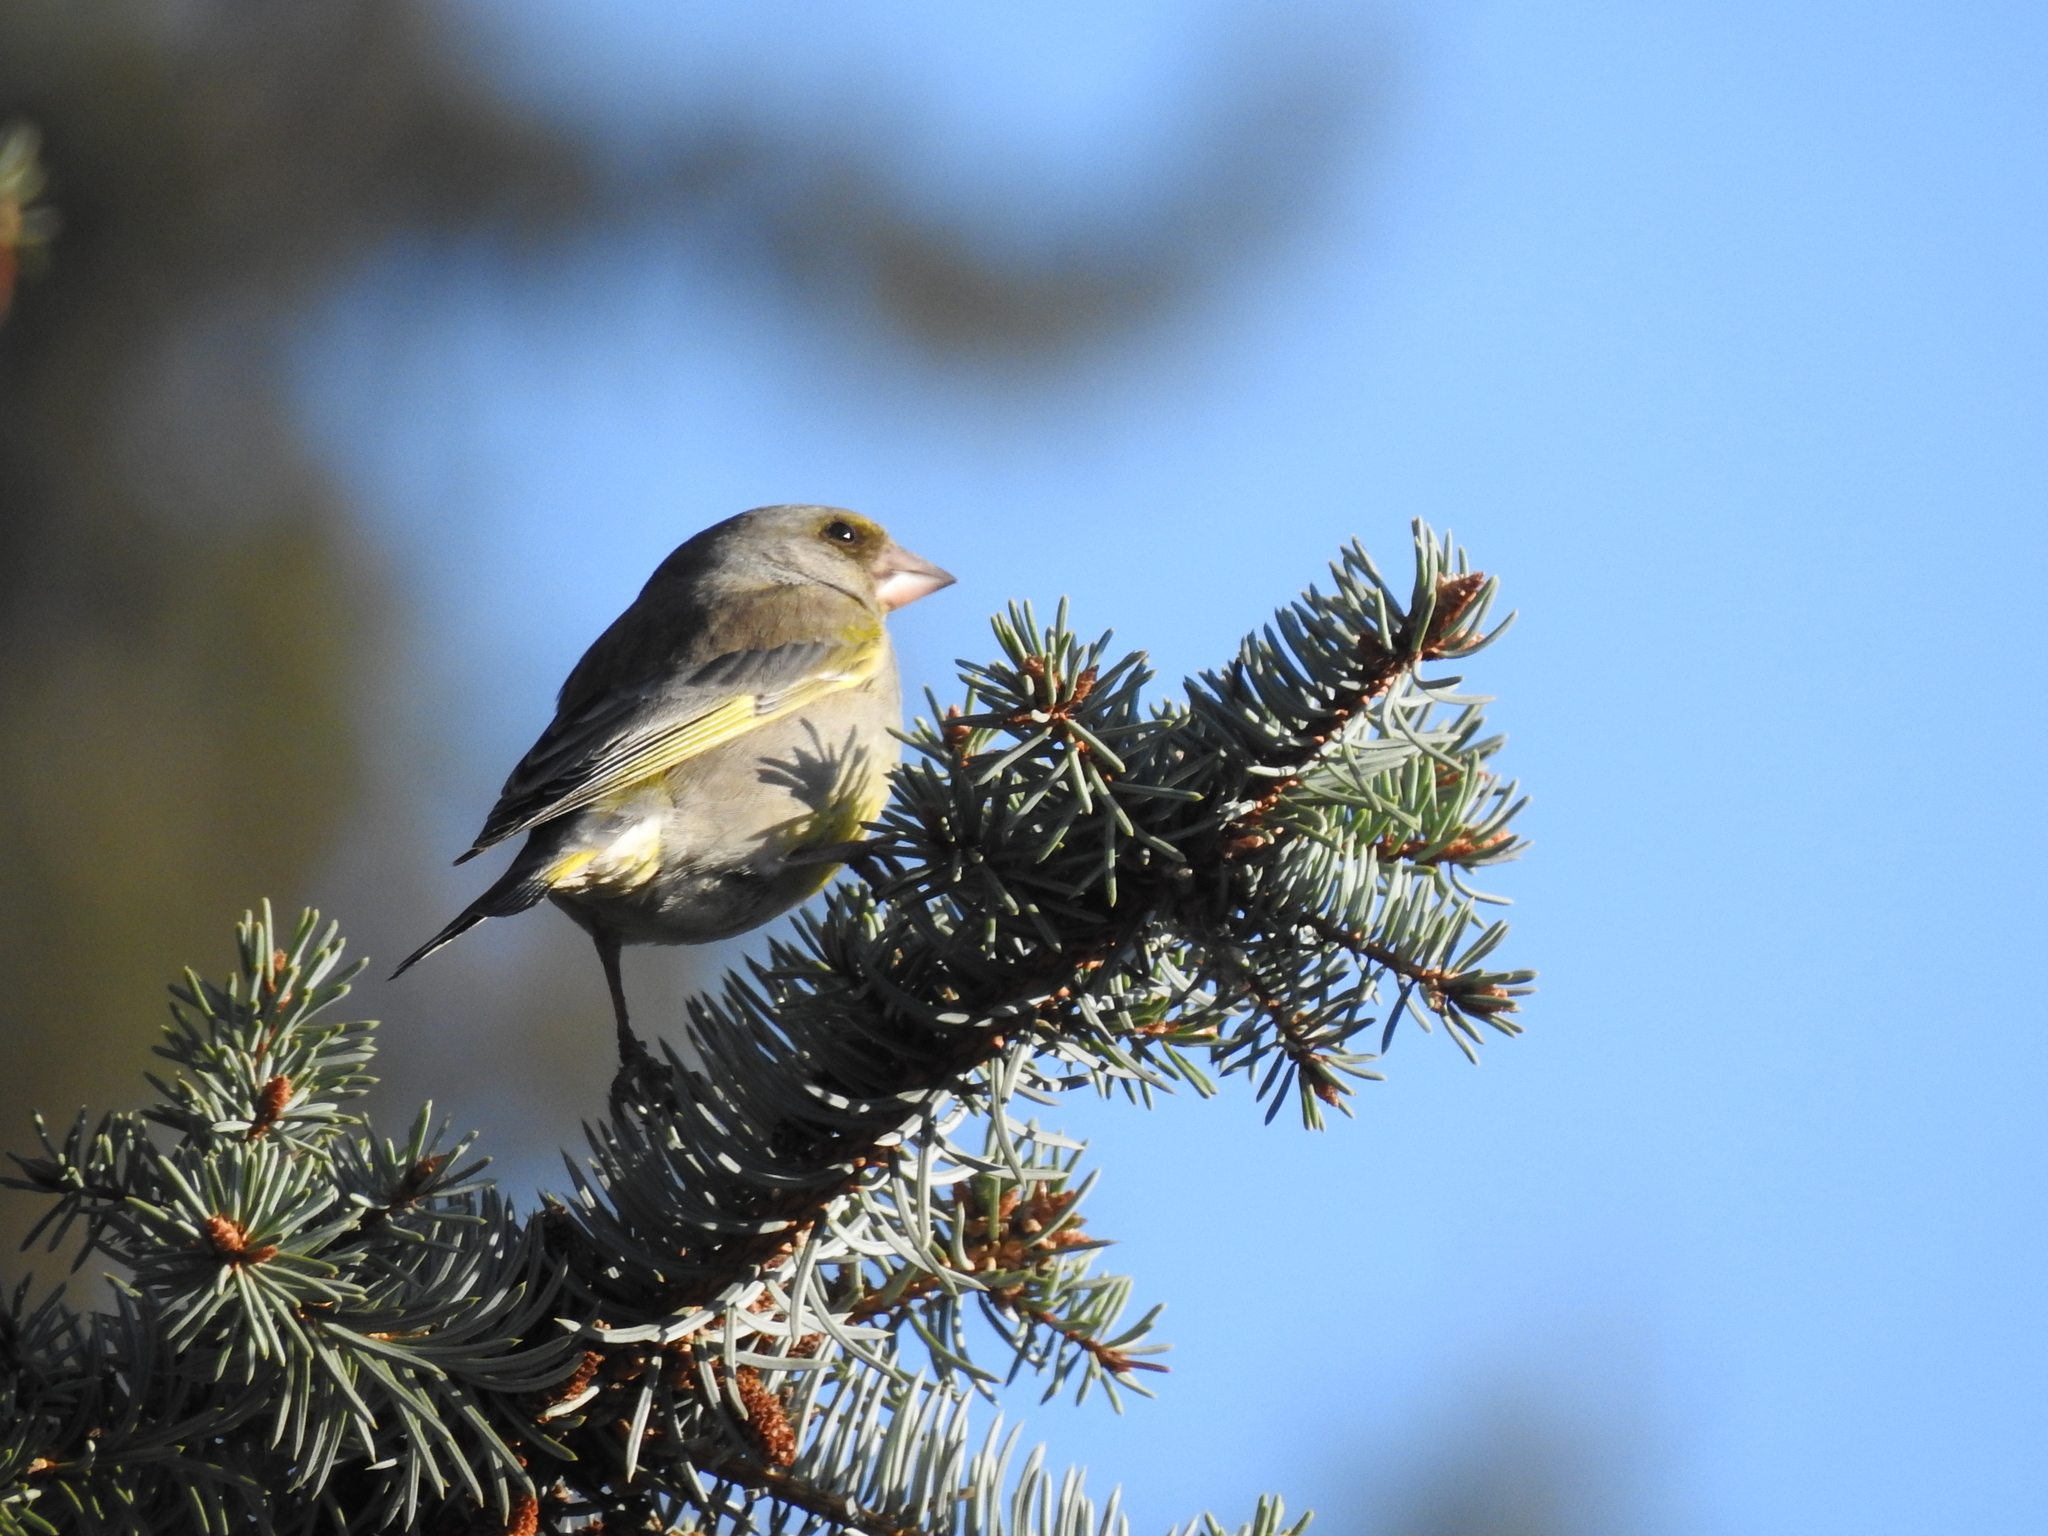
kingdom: Plantae
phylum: Tracheophyta
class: Liliopsida
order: Poales
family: Poaceae
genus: Chloris
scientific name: Chloris chloris
